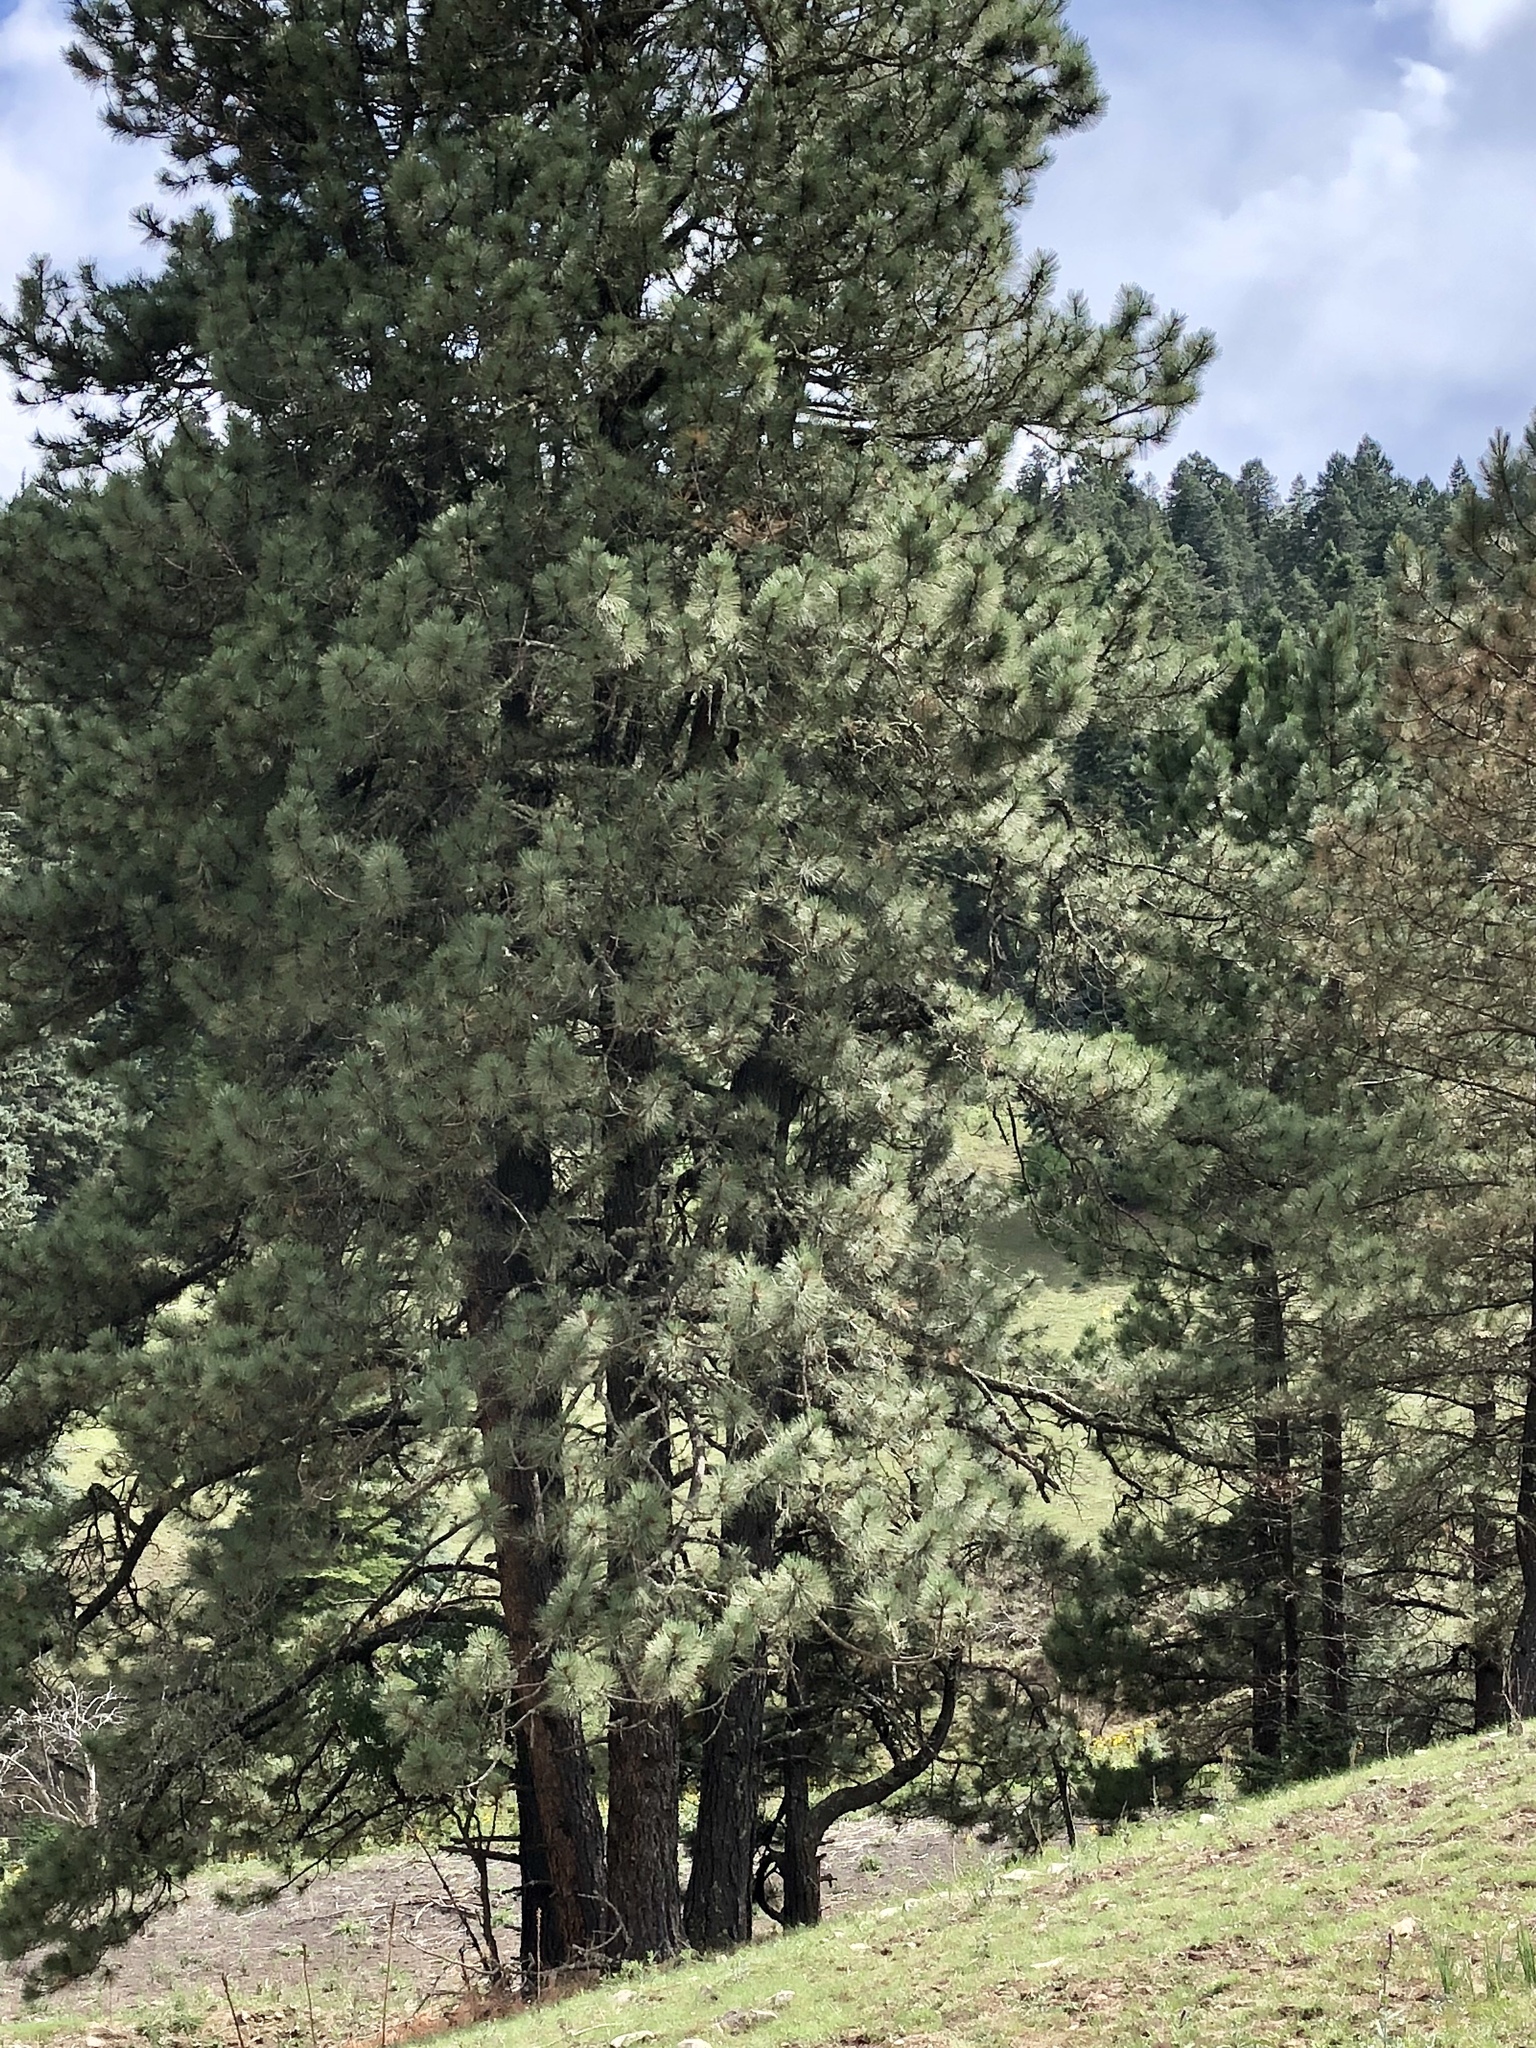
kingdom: Plantae
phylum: Tracheophyta
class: Pinopsida
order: Pinales
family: Pinaceae
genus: Pinus
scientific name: Pinus ponderosa
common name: Western yellow-pine
